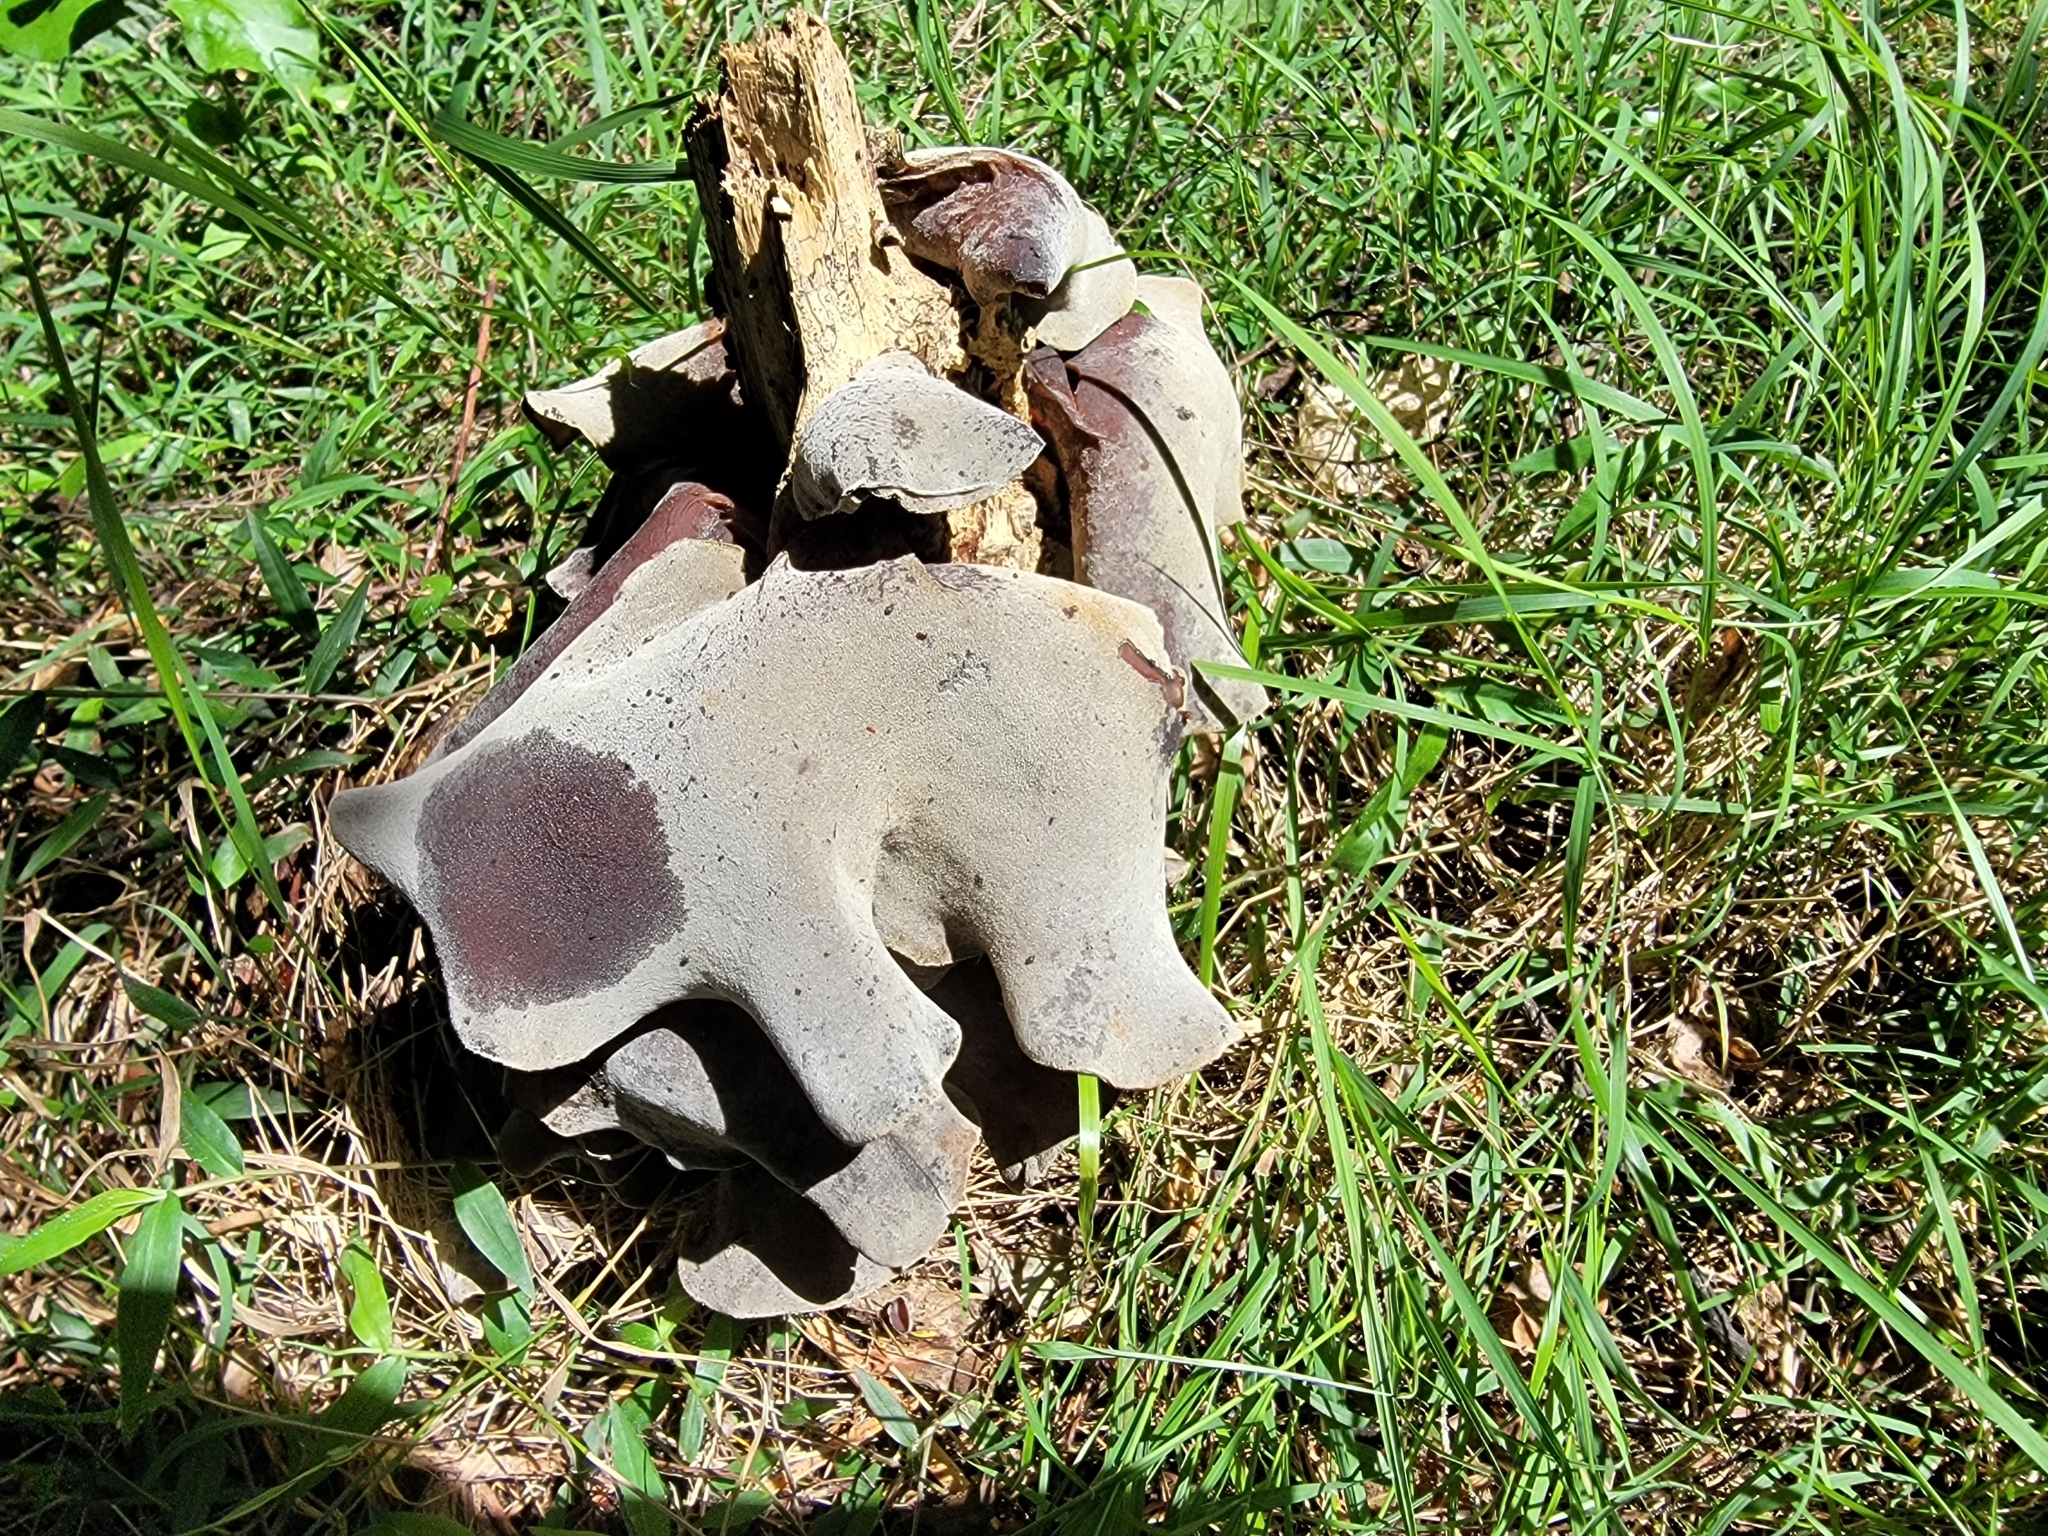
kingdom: Fungi
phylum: Basidiomycota
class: Agaricomycetes
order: Auriculariales
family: Auriculariaceae
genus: Auricularia
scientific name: Auricularia cornea
